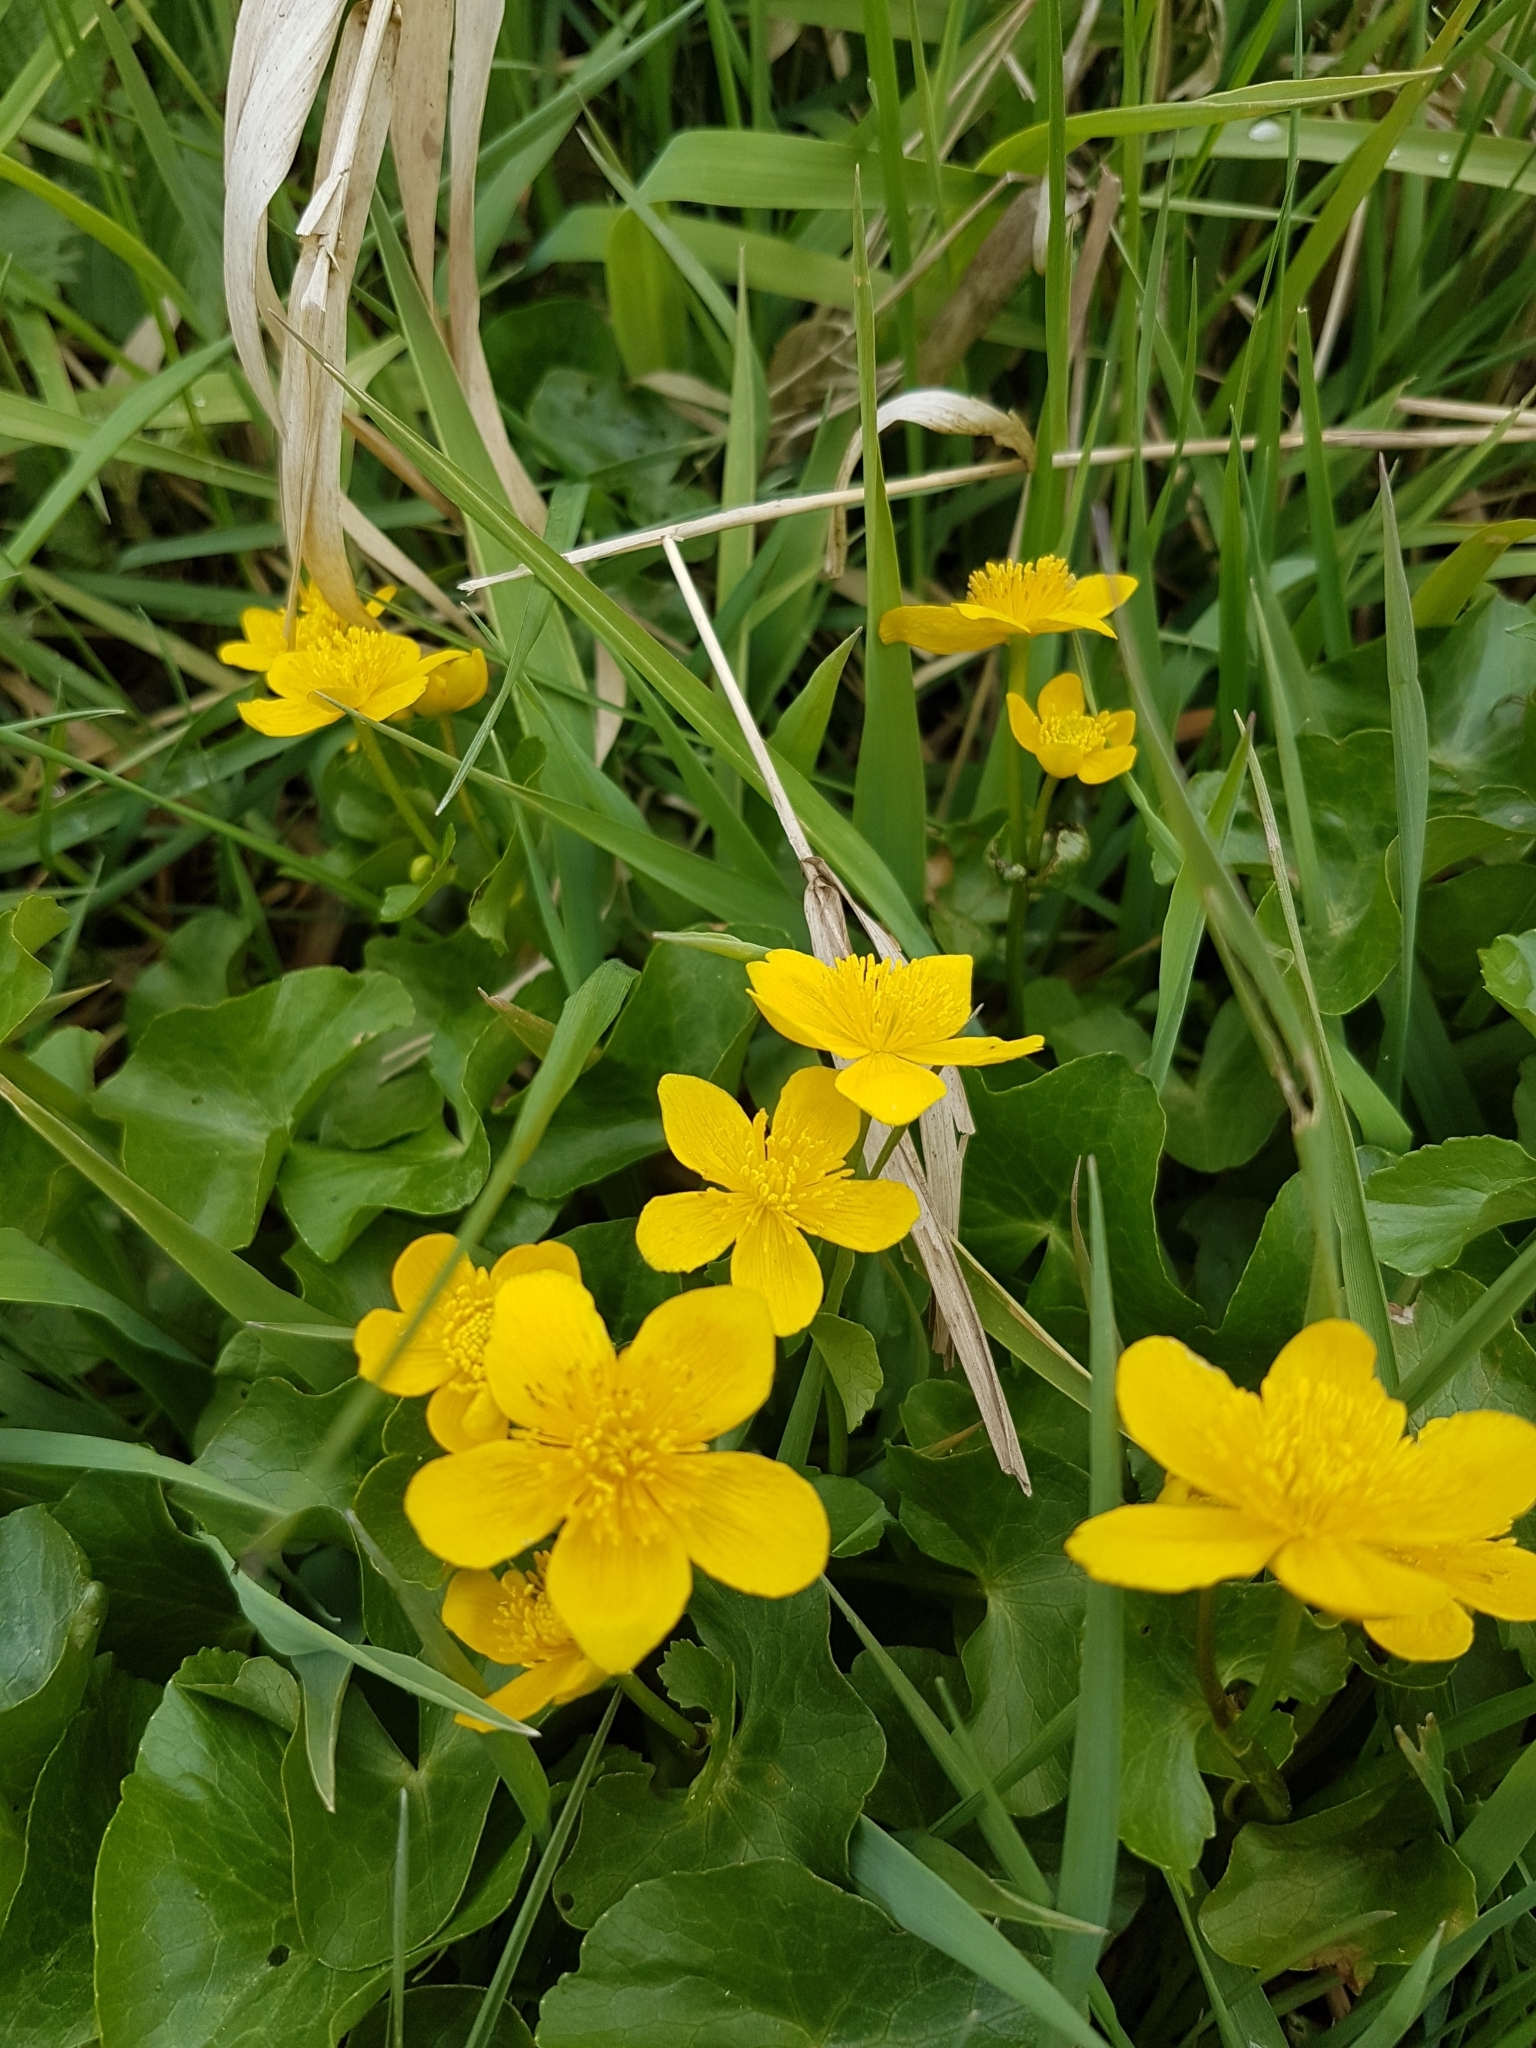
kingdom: Plantae
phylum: Tracheophyta
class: Magnoliopsida
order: Ranunculales
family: Ranunculaceae
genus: Caltha
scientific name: Caltha palustris
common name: Marsh marigold
